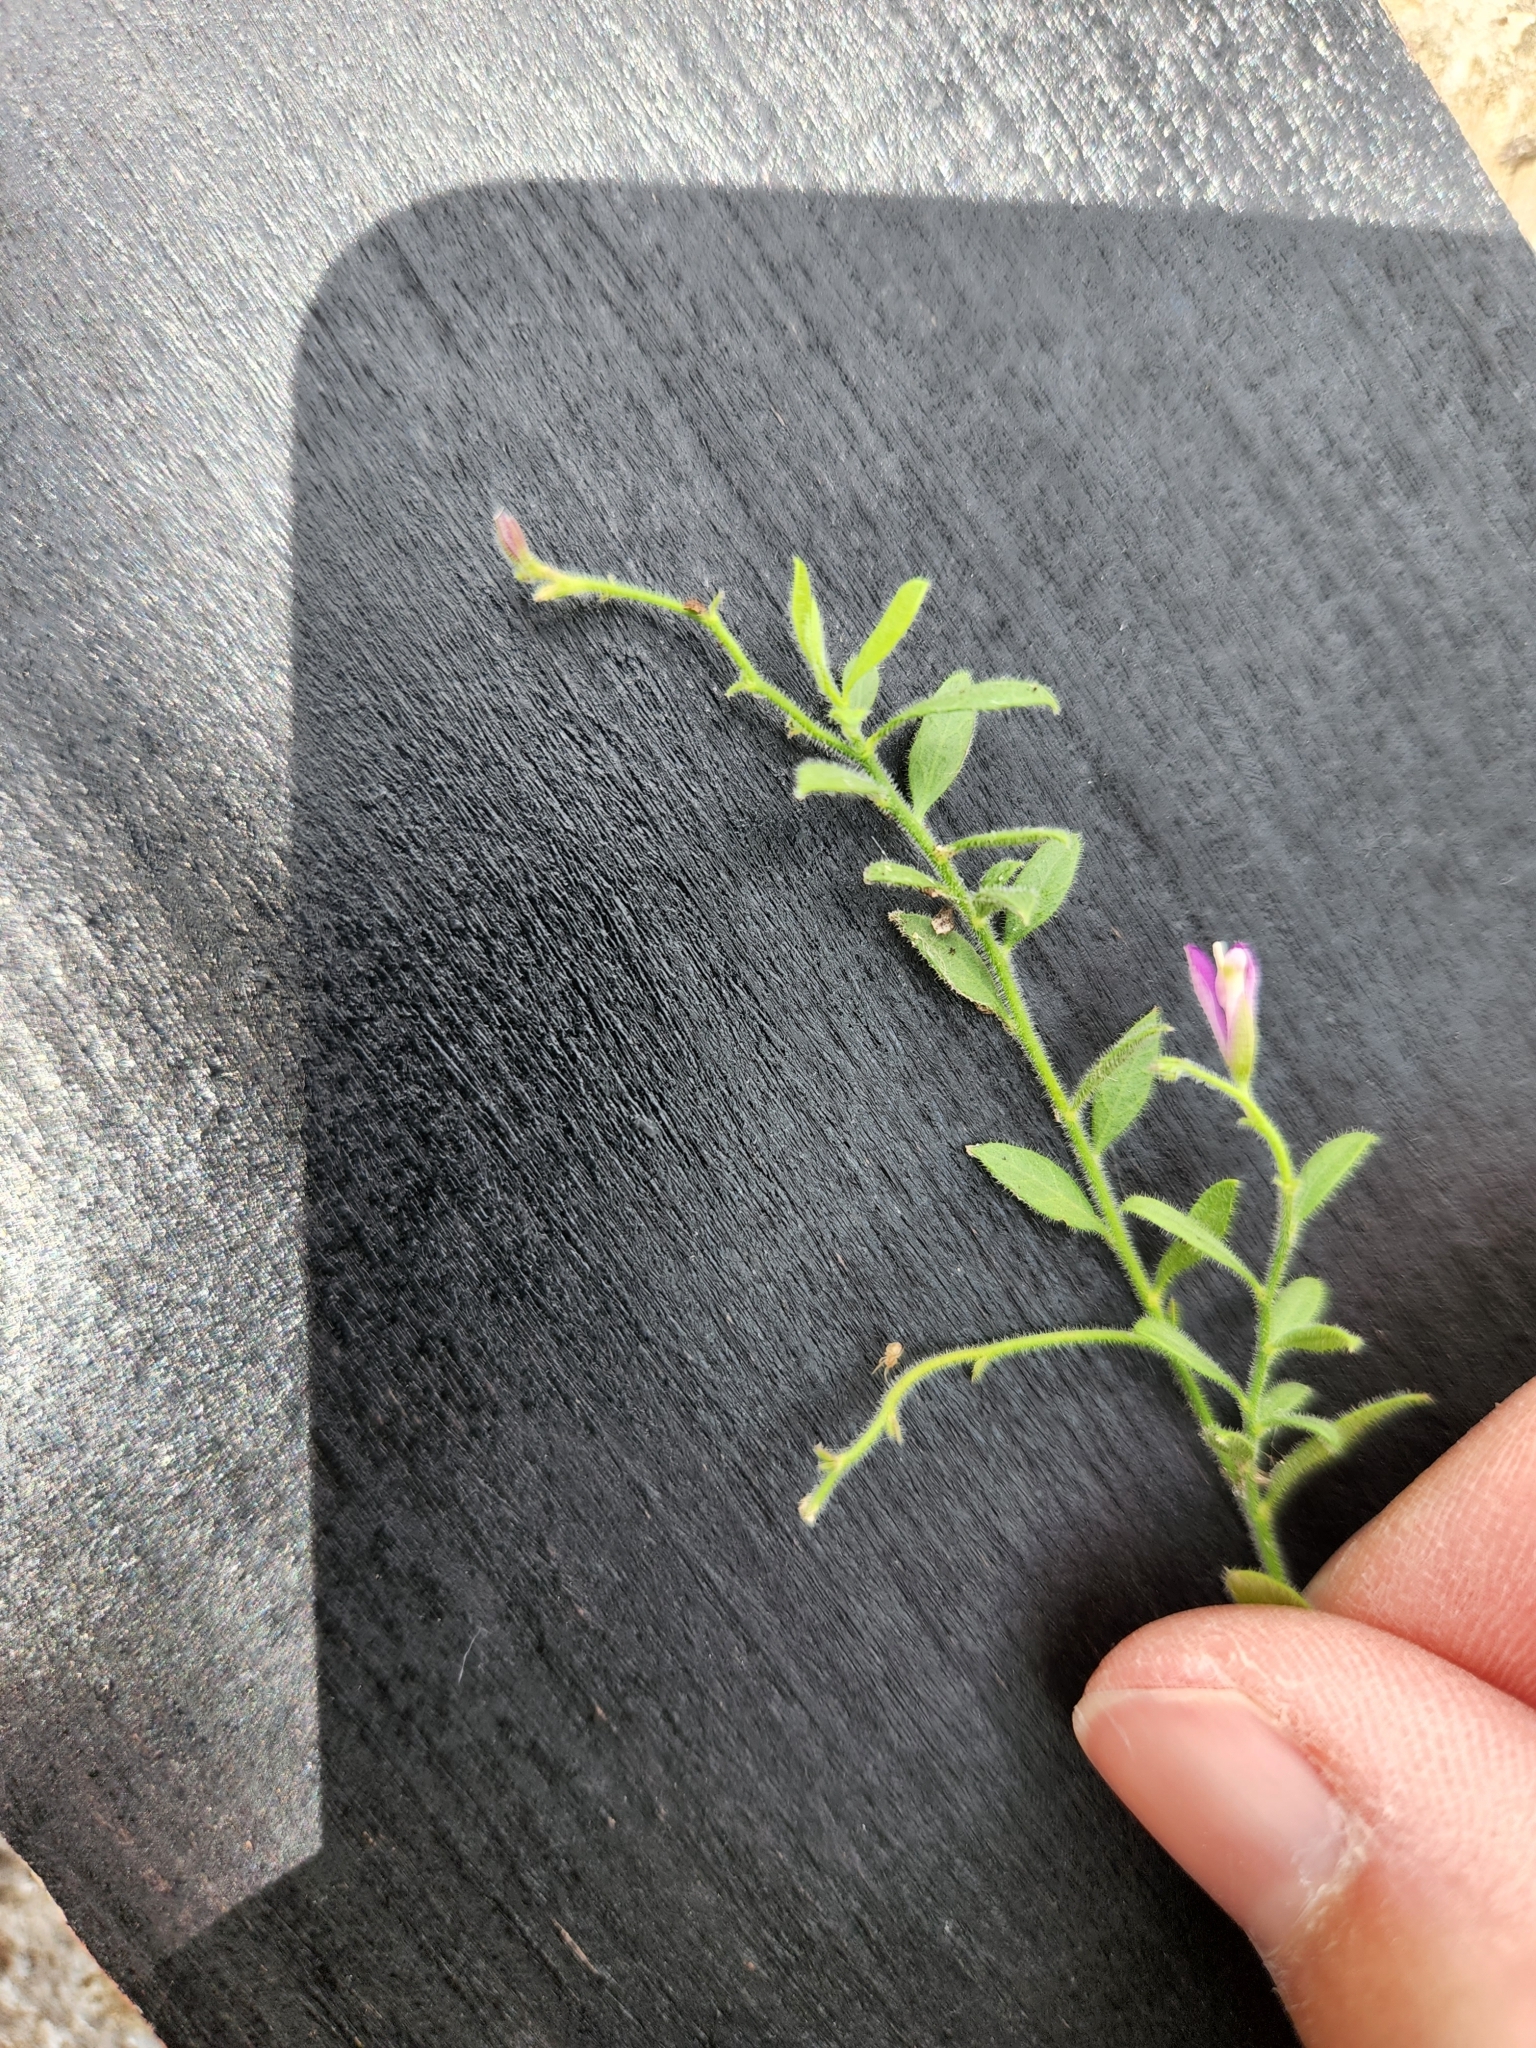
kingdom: Plantae
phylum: Tracheophyta
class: Magnoliopsida
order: Fabales
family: Polygalaceae
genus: Rhinotropis
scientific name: Rhinotropis lindheimeri
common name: Shrubby milkwort
